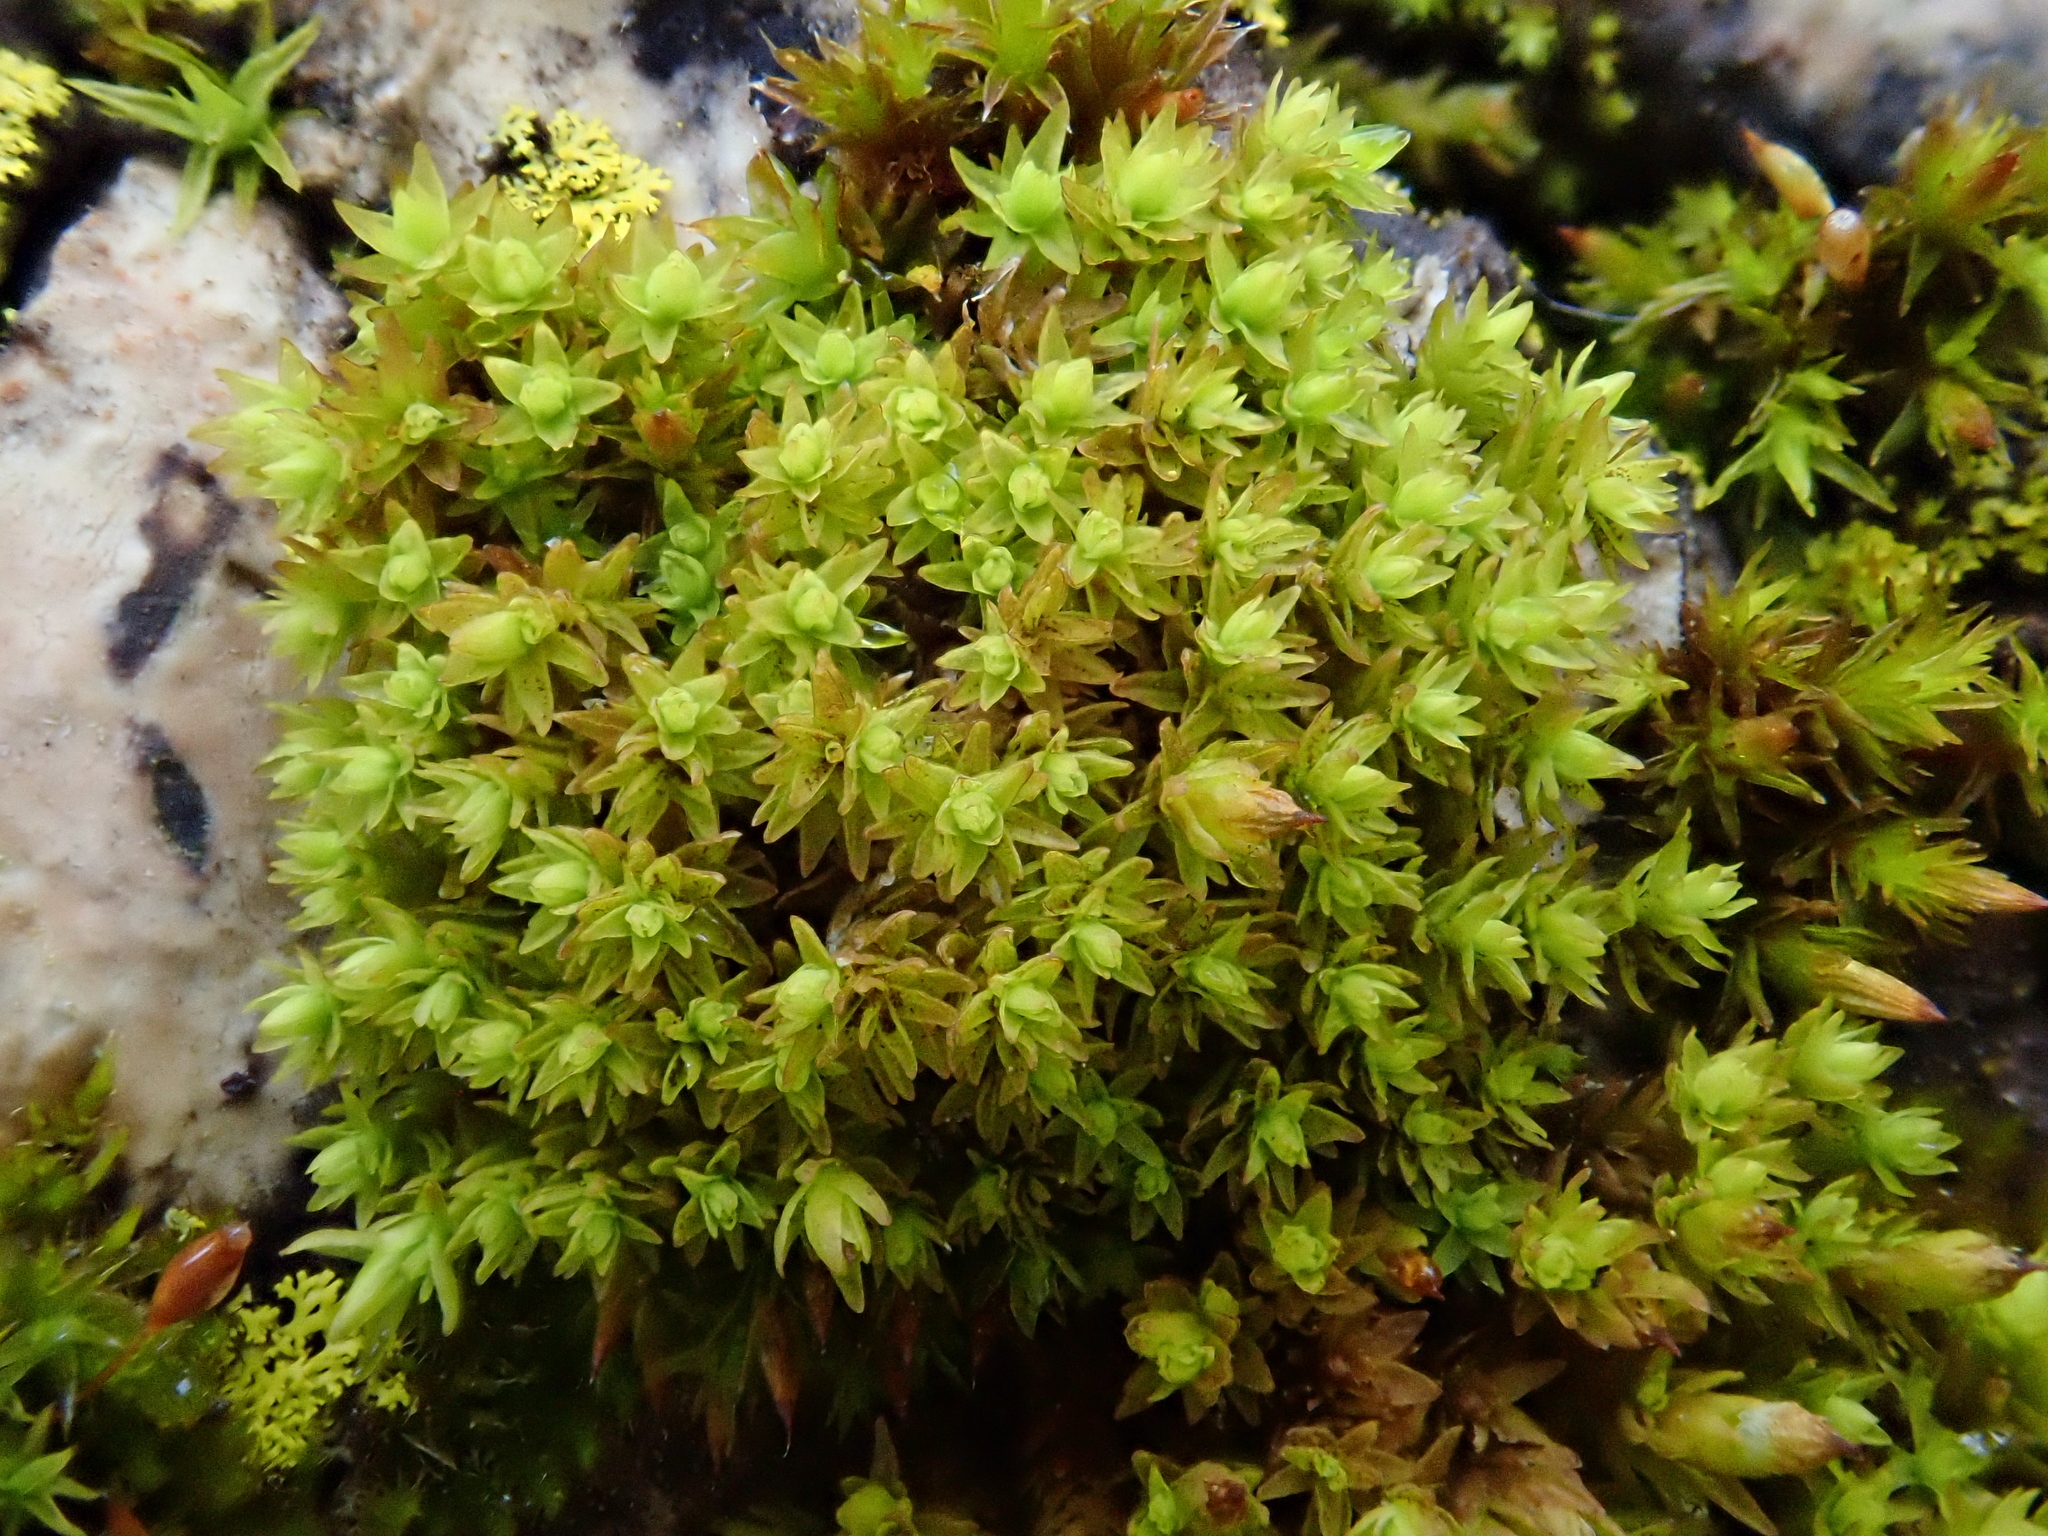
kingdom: Plantae
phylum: Bryophyta
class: Bryopsida
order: Orthotrichales
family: Orthotrichaceae
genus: Nyholmiella
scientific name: Nyholmiella obtusifolia
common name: Blunt-leaved bristle-moss
